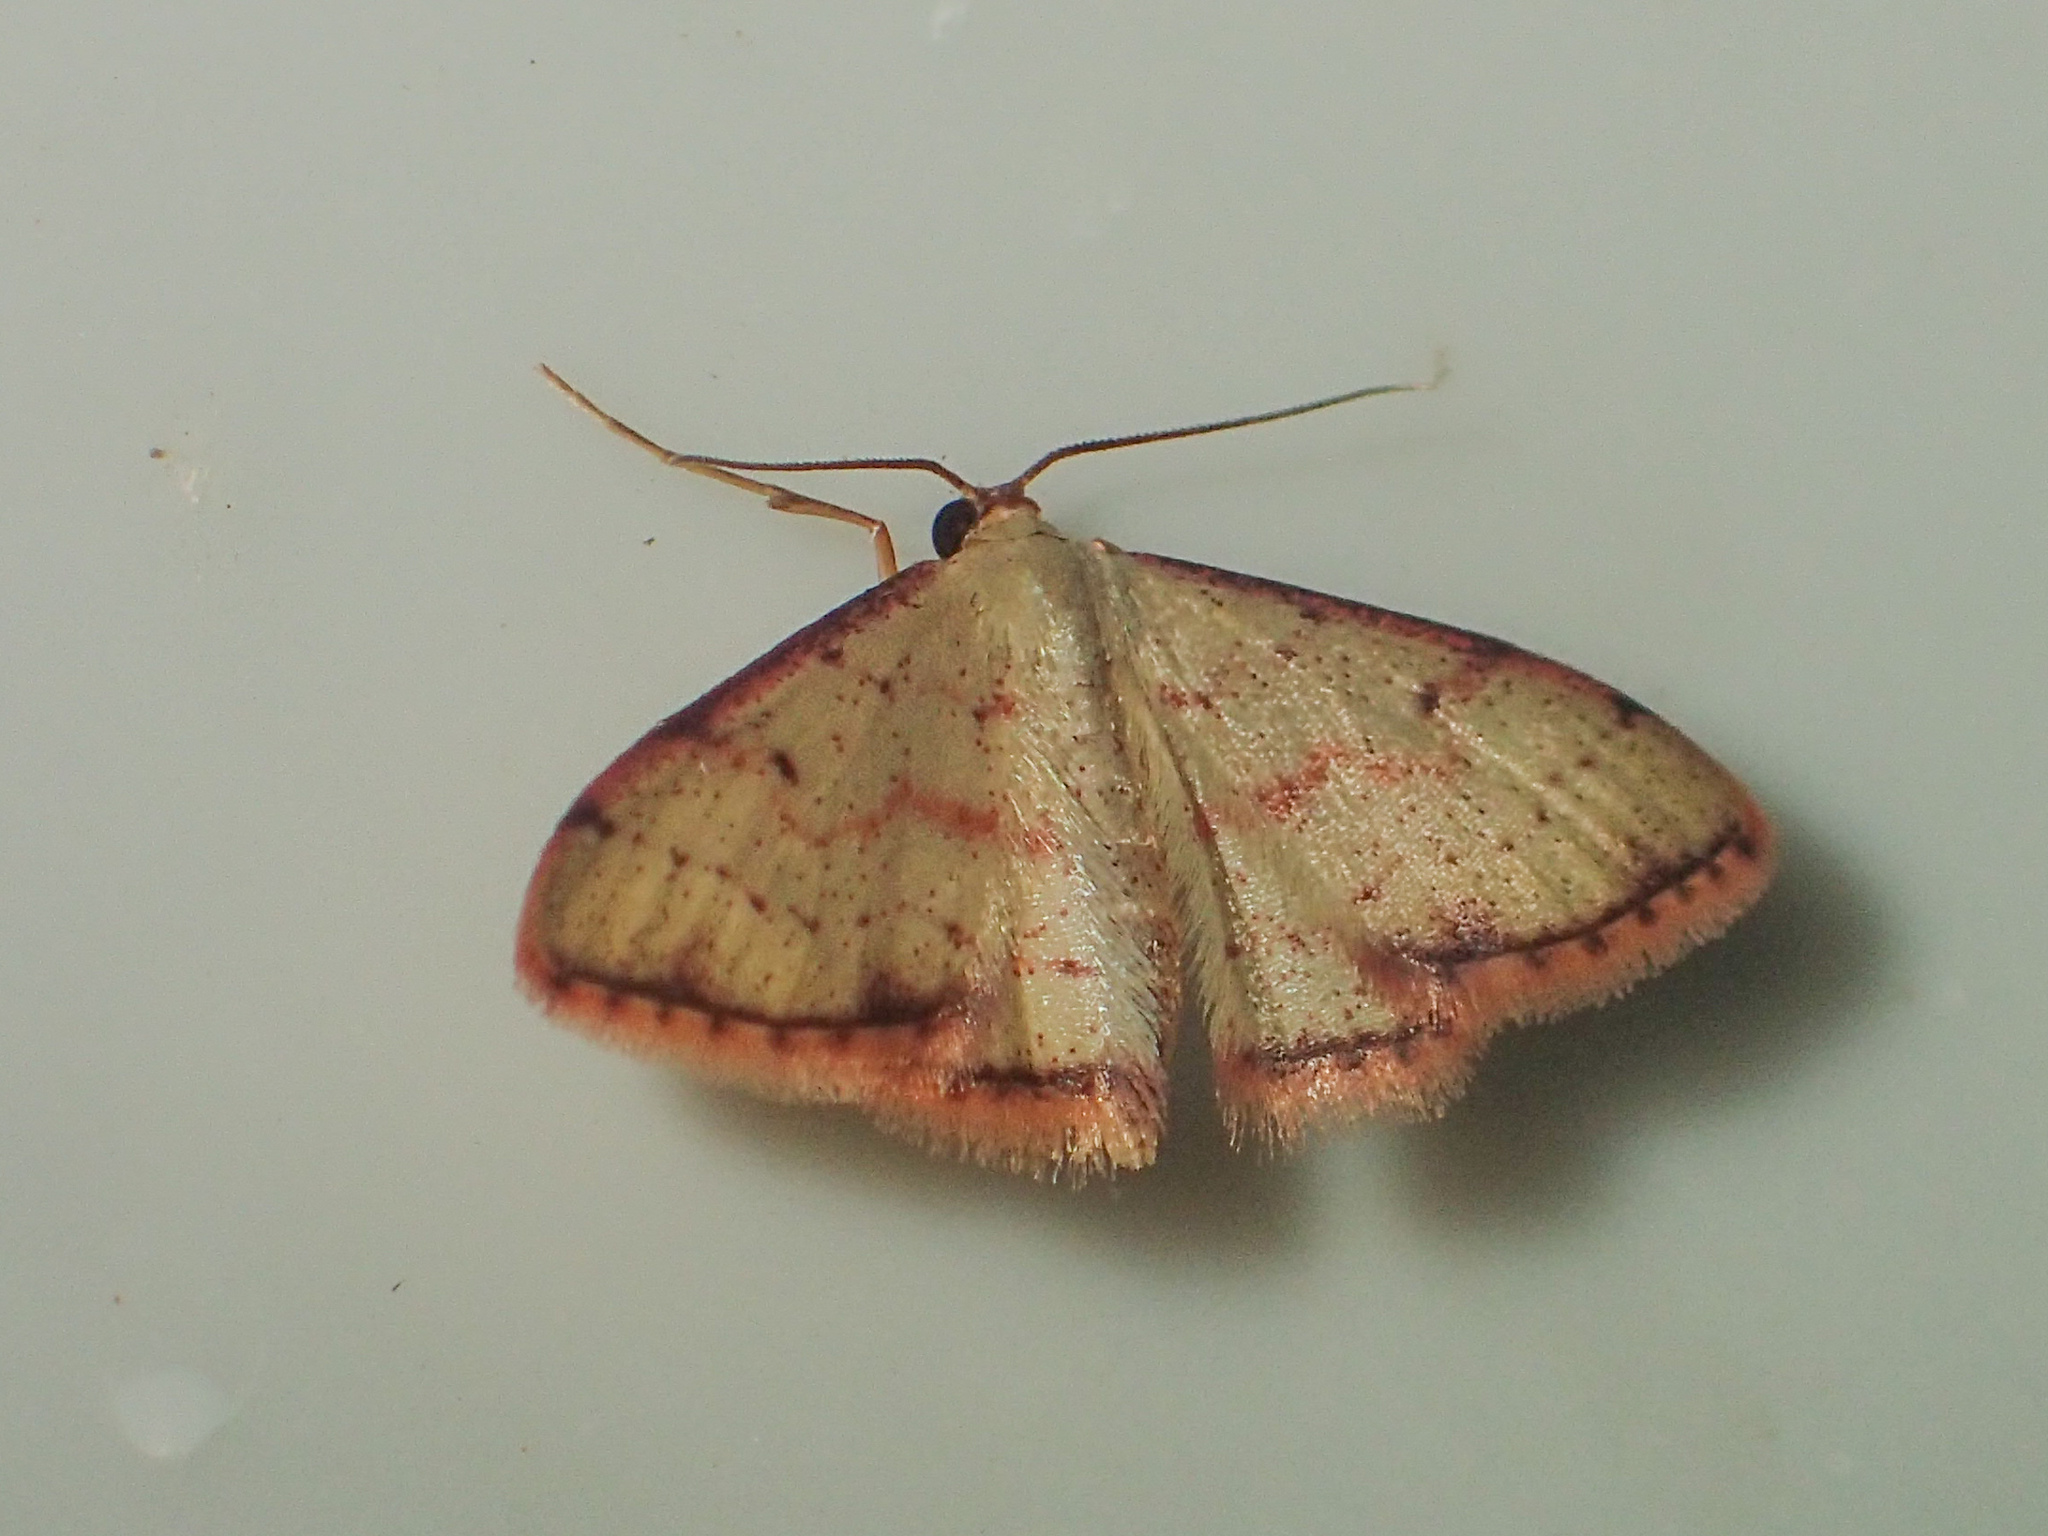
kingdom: Animalia
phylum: Arthropoda
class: Insecta
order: Lepidoptera
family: Geometridae
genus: Idaea
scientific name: Idaea craspedota
